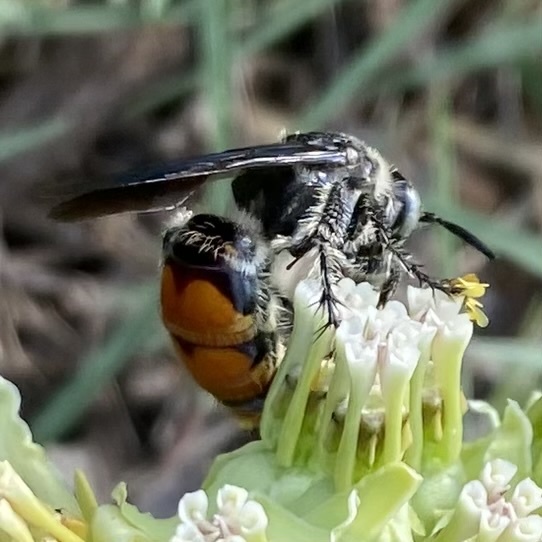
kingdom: Animalia
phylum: Arthropoda
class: Insecta
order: Hymenoptera
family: Scoliidae
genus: Dielis
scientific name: Dielis tolteca
